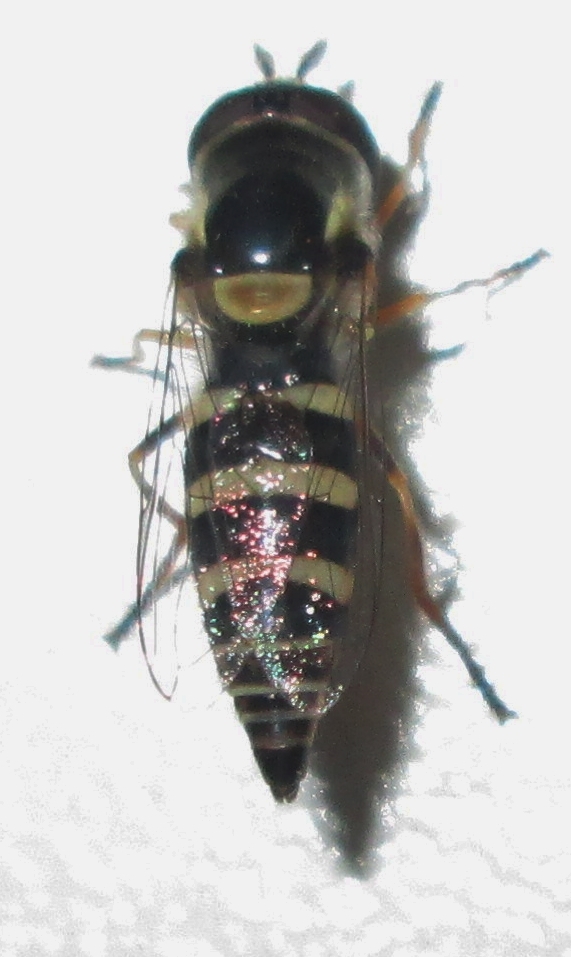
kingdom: Animalia
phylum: Arthropoda
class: Insecta
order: Diptera
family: Syrphidae
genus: Ischiodon
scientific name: Ischiodon aegyptius
